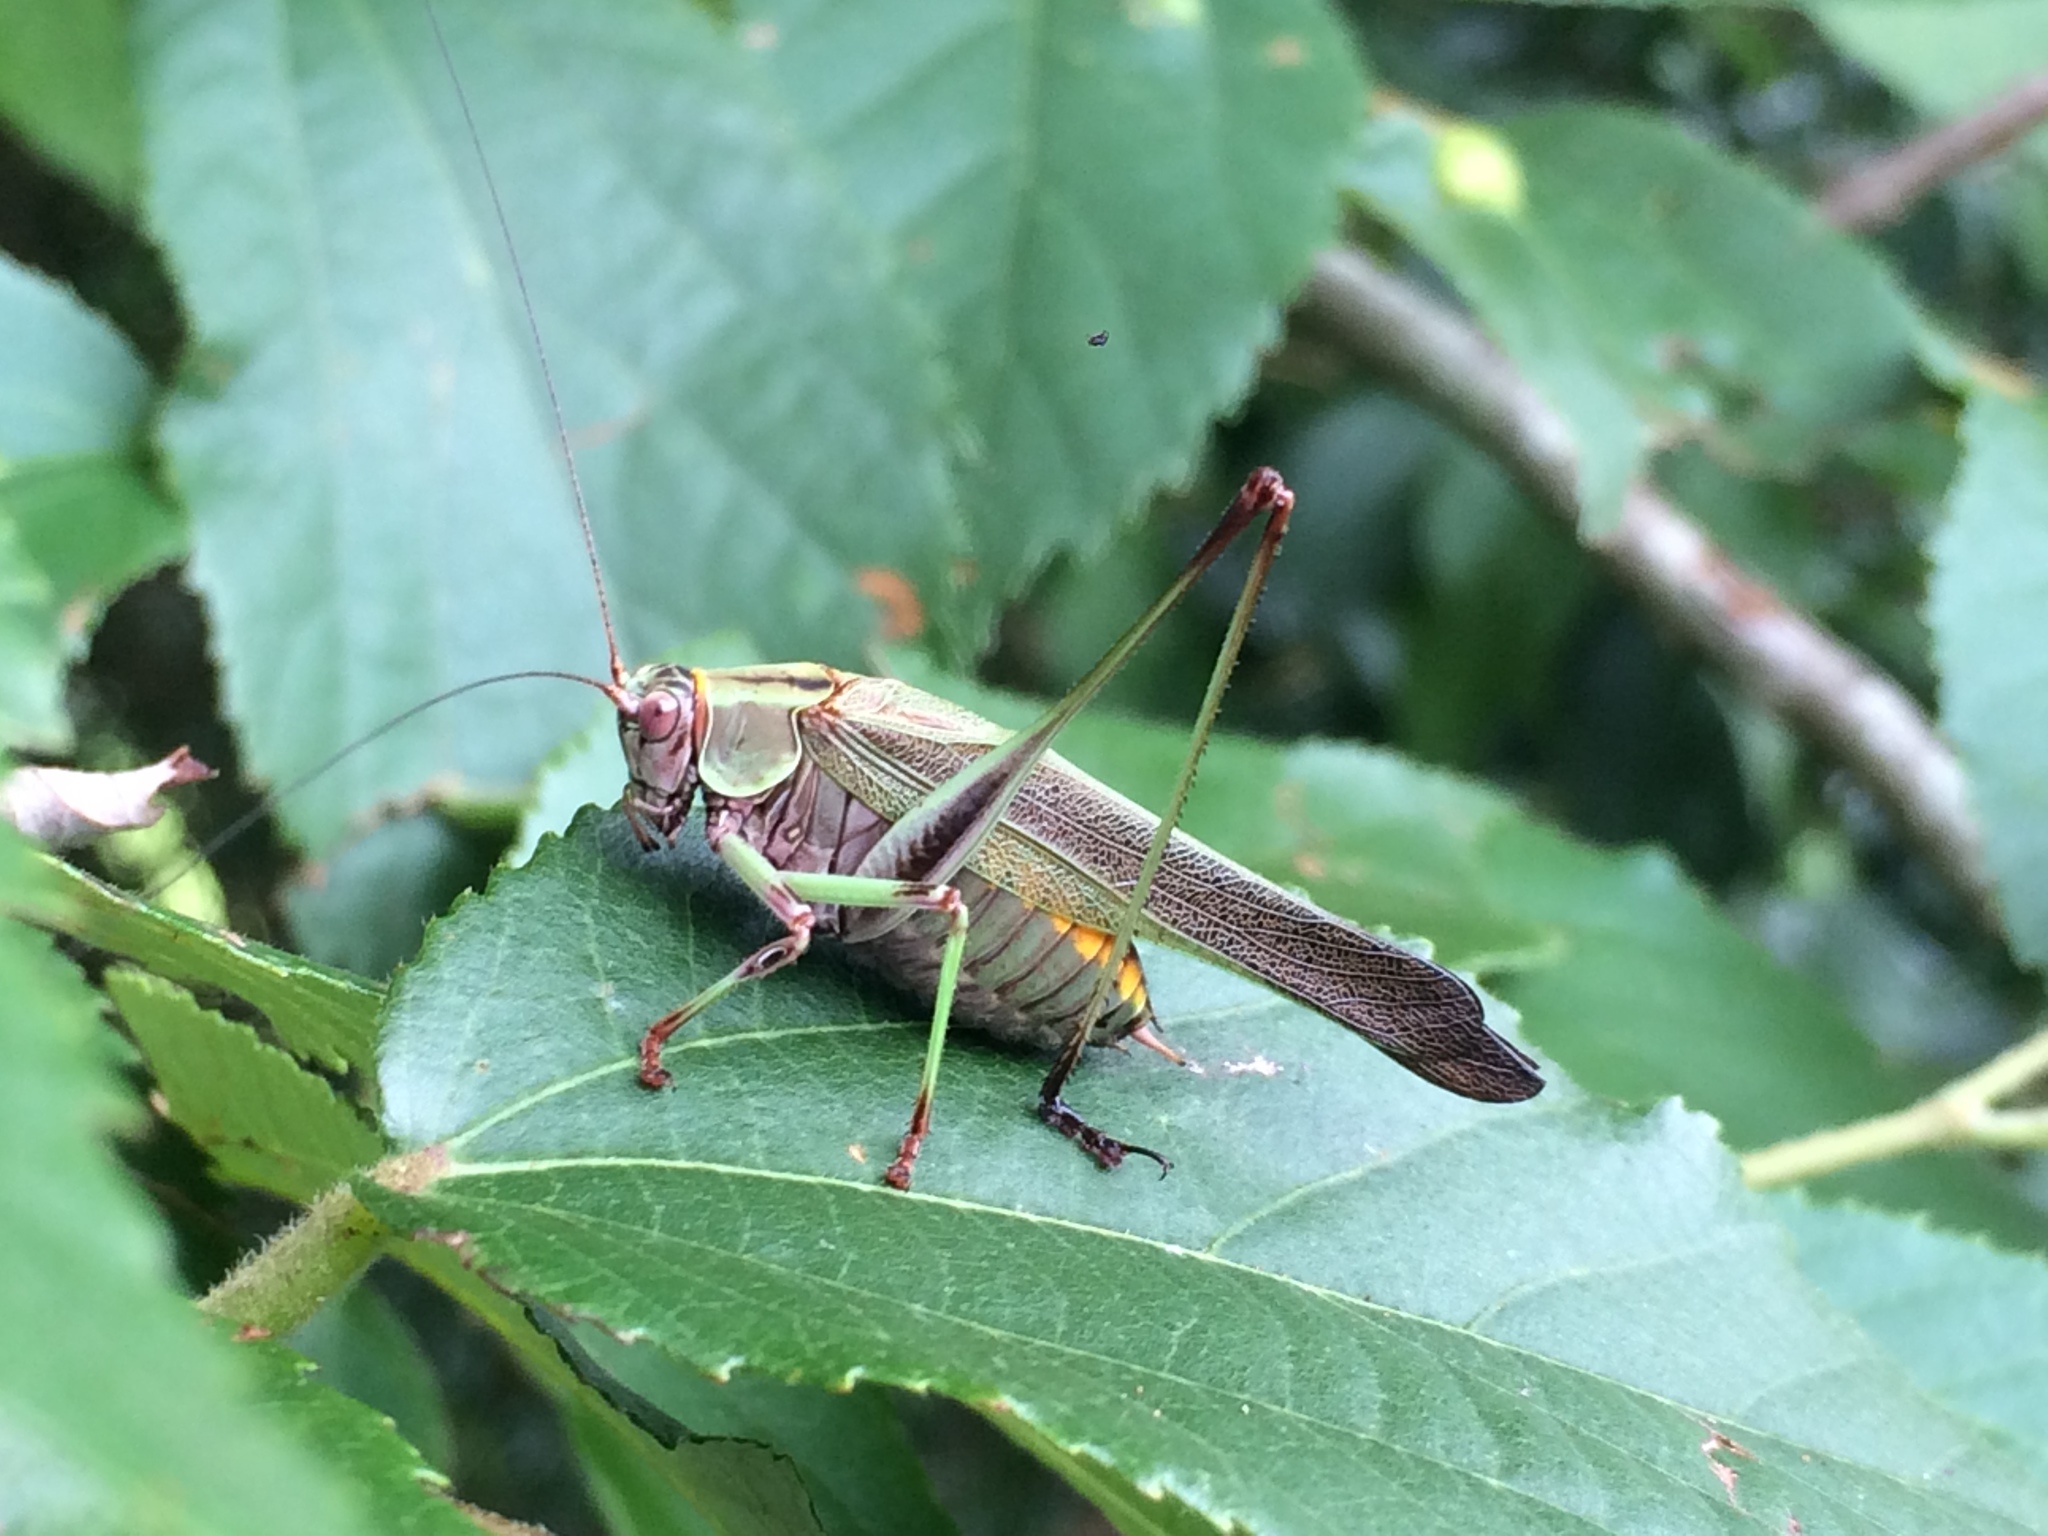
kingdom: Animalia
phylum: Arthropoda
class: Insecta
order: Orthoptera
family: Tettigoniidae
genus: Enthephippion
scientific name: Enthephippion olivaceum
